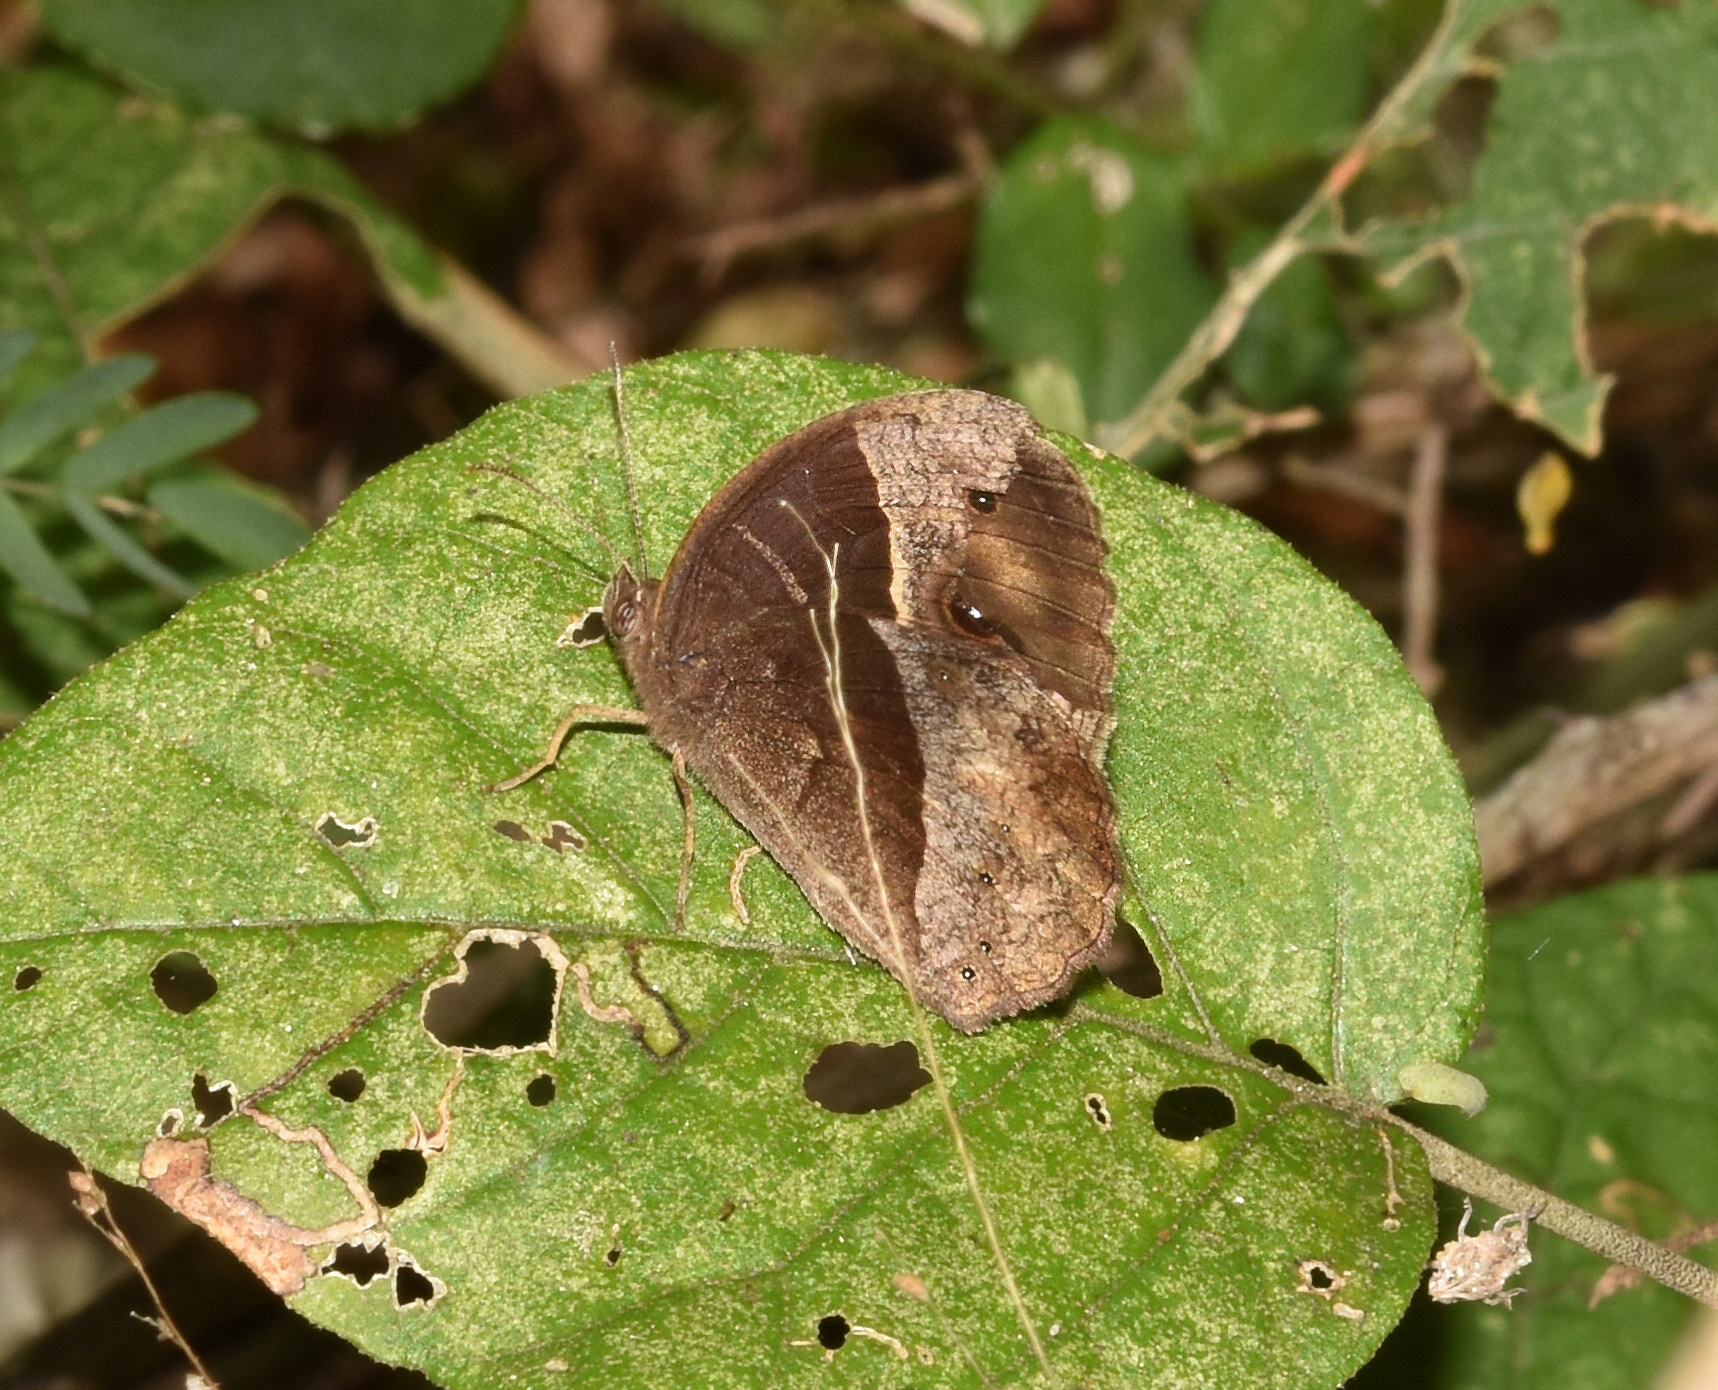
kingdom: Animalia
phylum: Arthropoda
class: Insecta
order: Lepidoptera
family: Nymphalidae
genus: Mycalesis
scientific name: Mycalesis rhacotis
